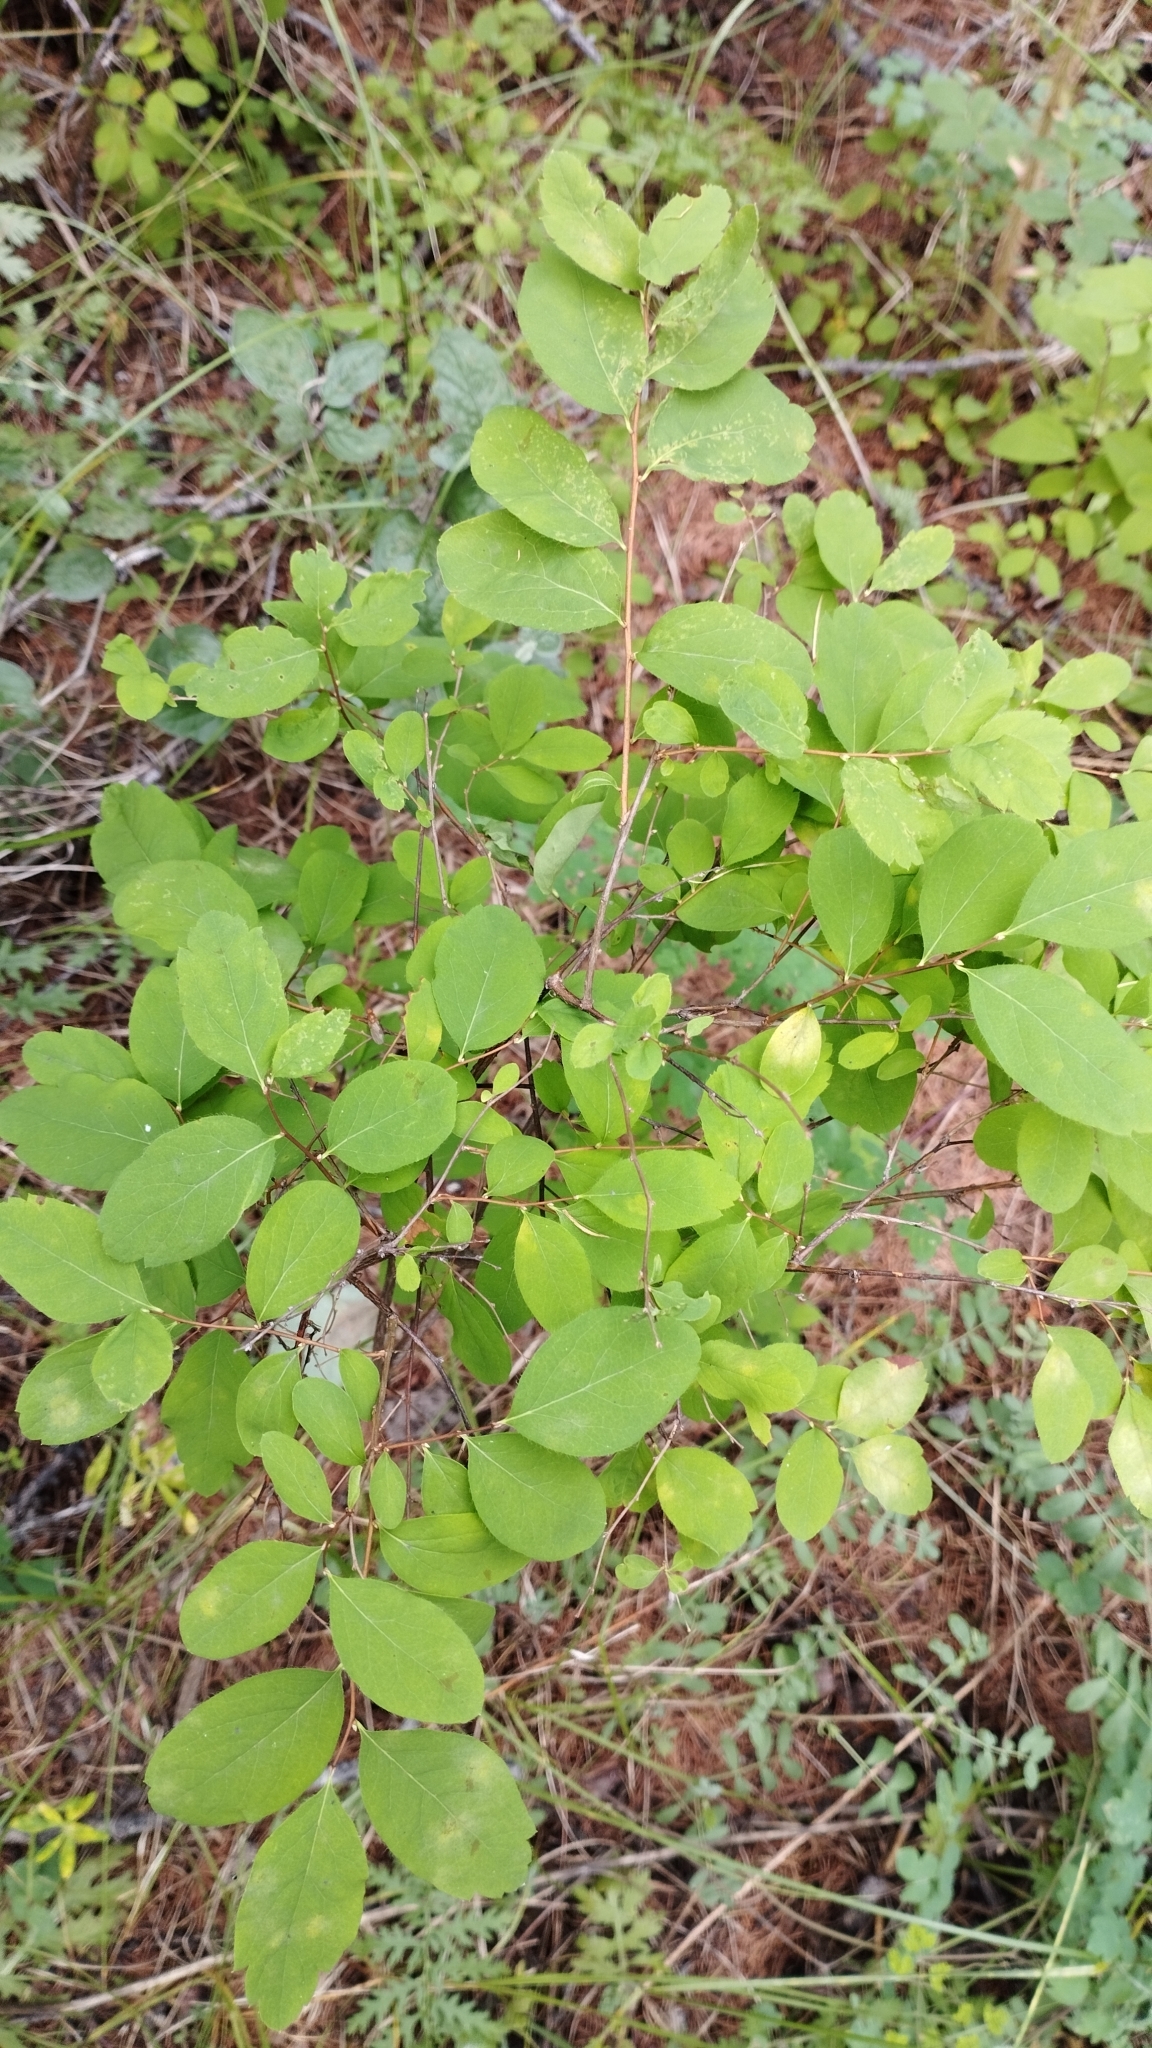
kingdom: Plantae
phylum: Tracheophyta
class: Magnoliopsida
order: Rosales
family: Rosaceae
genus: Spiraea
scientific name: Spiraea media
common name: Russian spiraea
